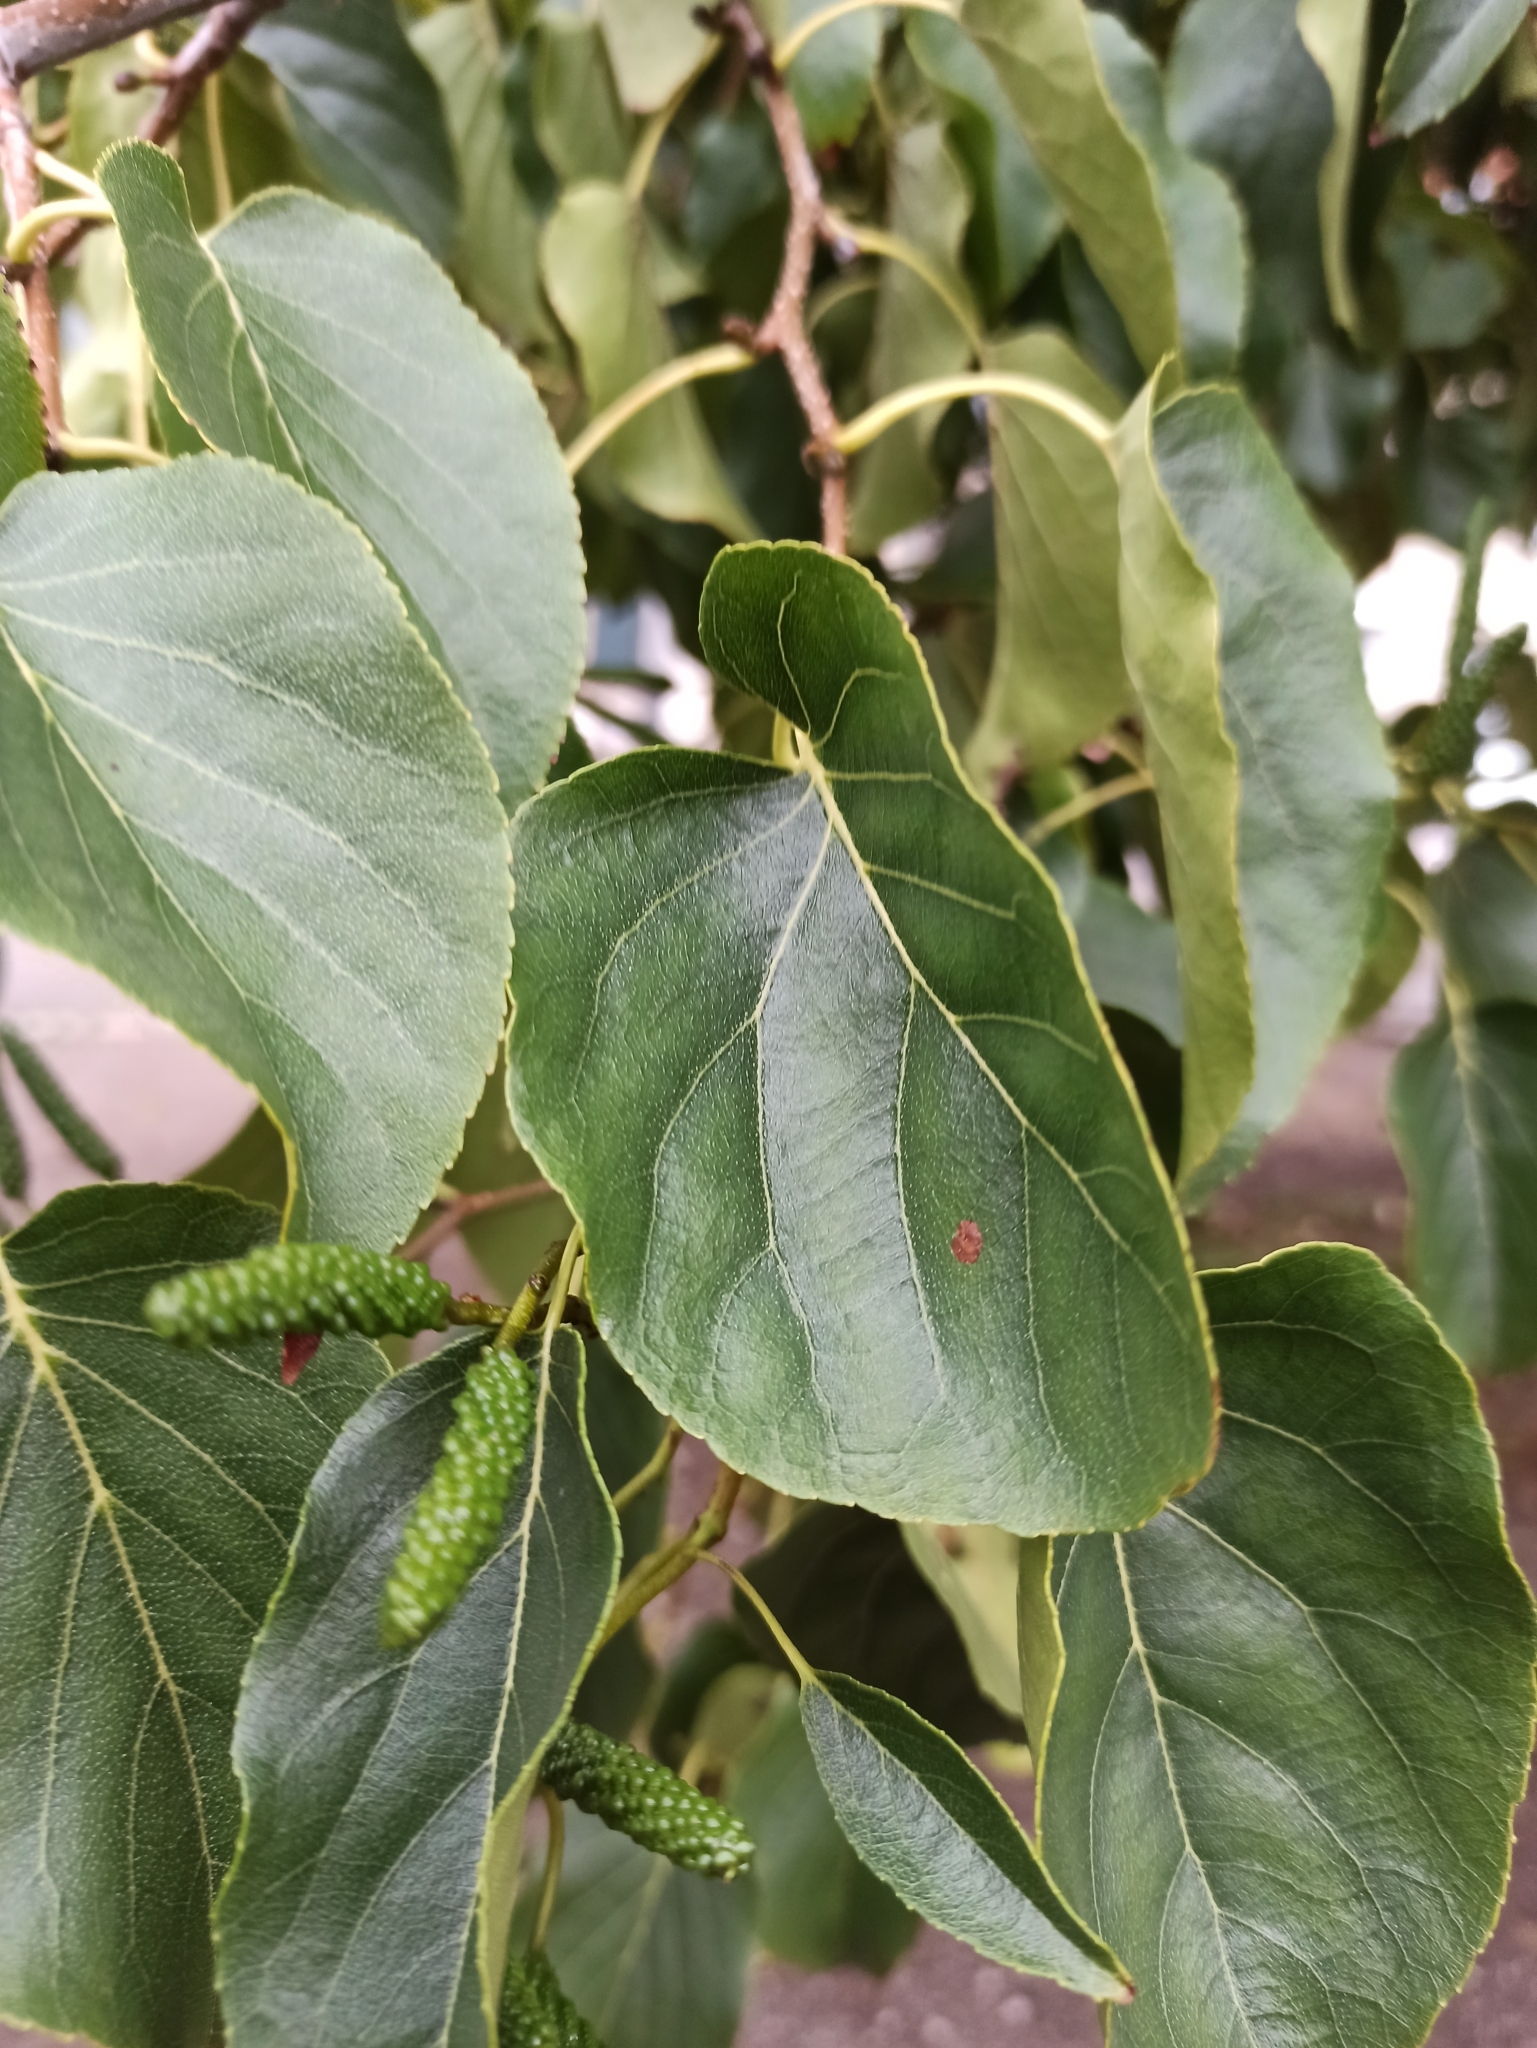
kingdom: Plantae
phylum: Tracheophyta
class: Magnoliopsida
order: Fagales
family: Betulaceae
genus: Alnus
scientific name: Alnus cordata
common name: Italian alder
